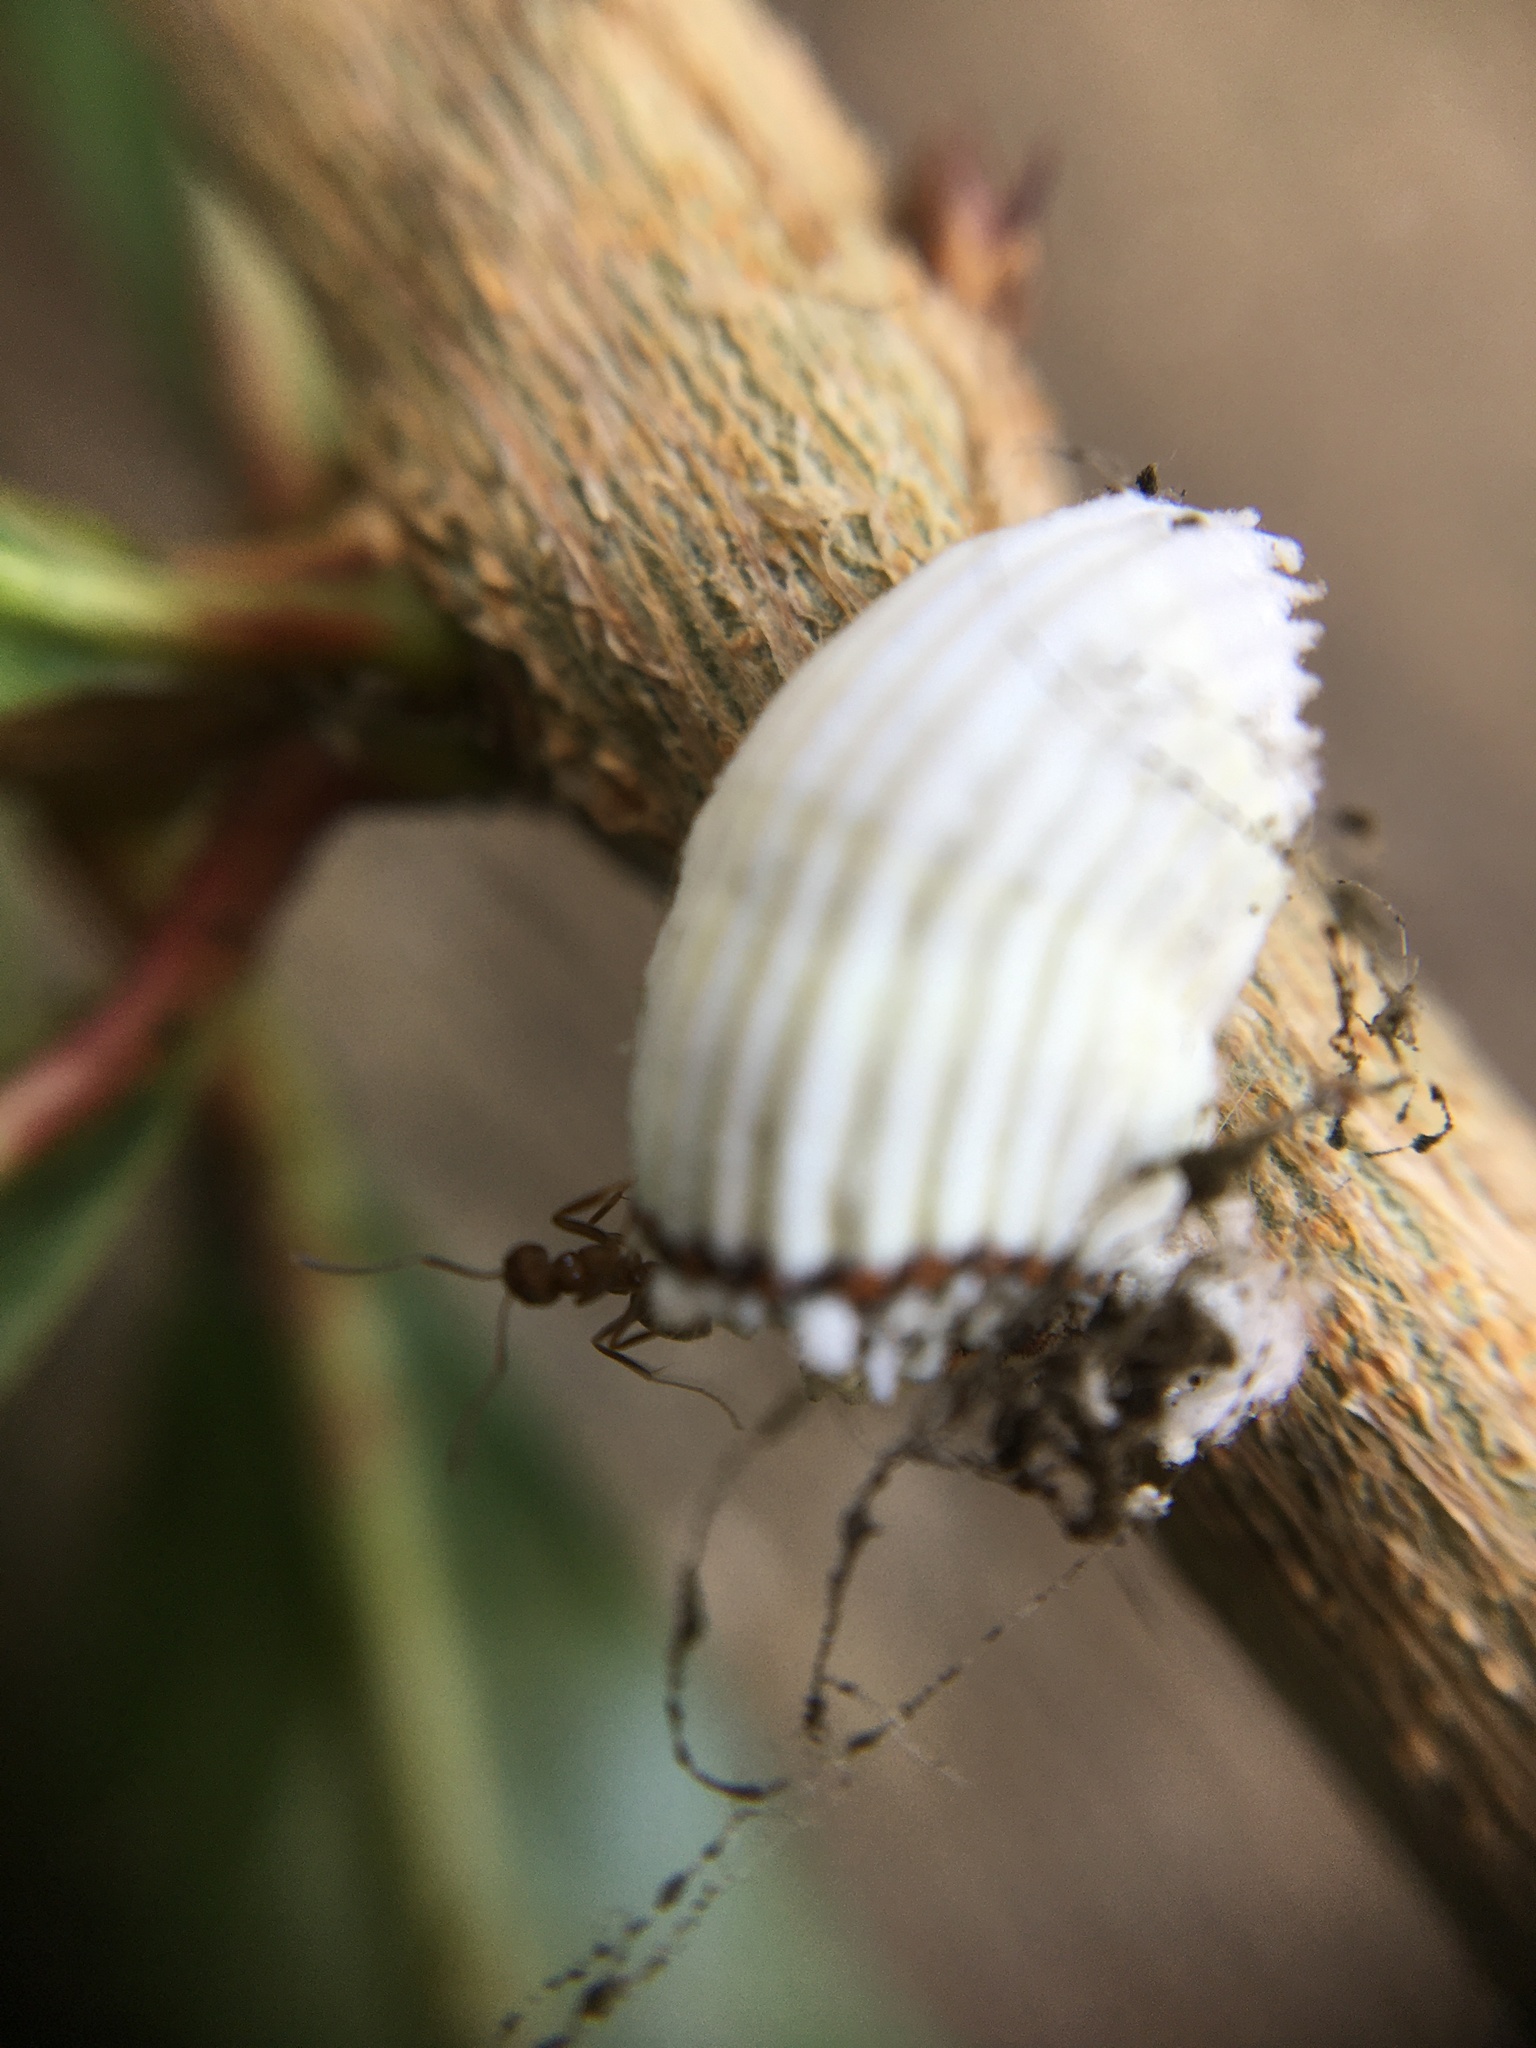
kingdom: Animalia
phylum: Arthropoda
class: Insecta
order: Hymenoptera
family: Formicidae
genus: Linepithema
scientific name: Linepithema humile
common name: Argentine ant
